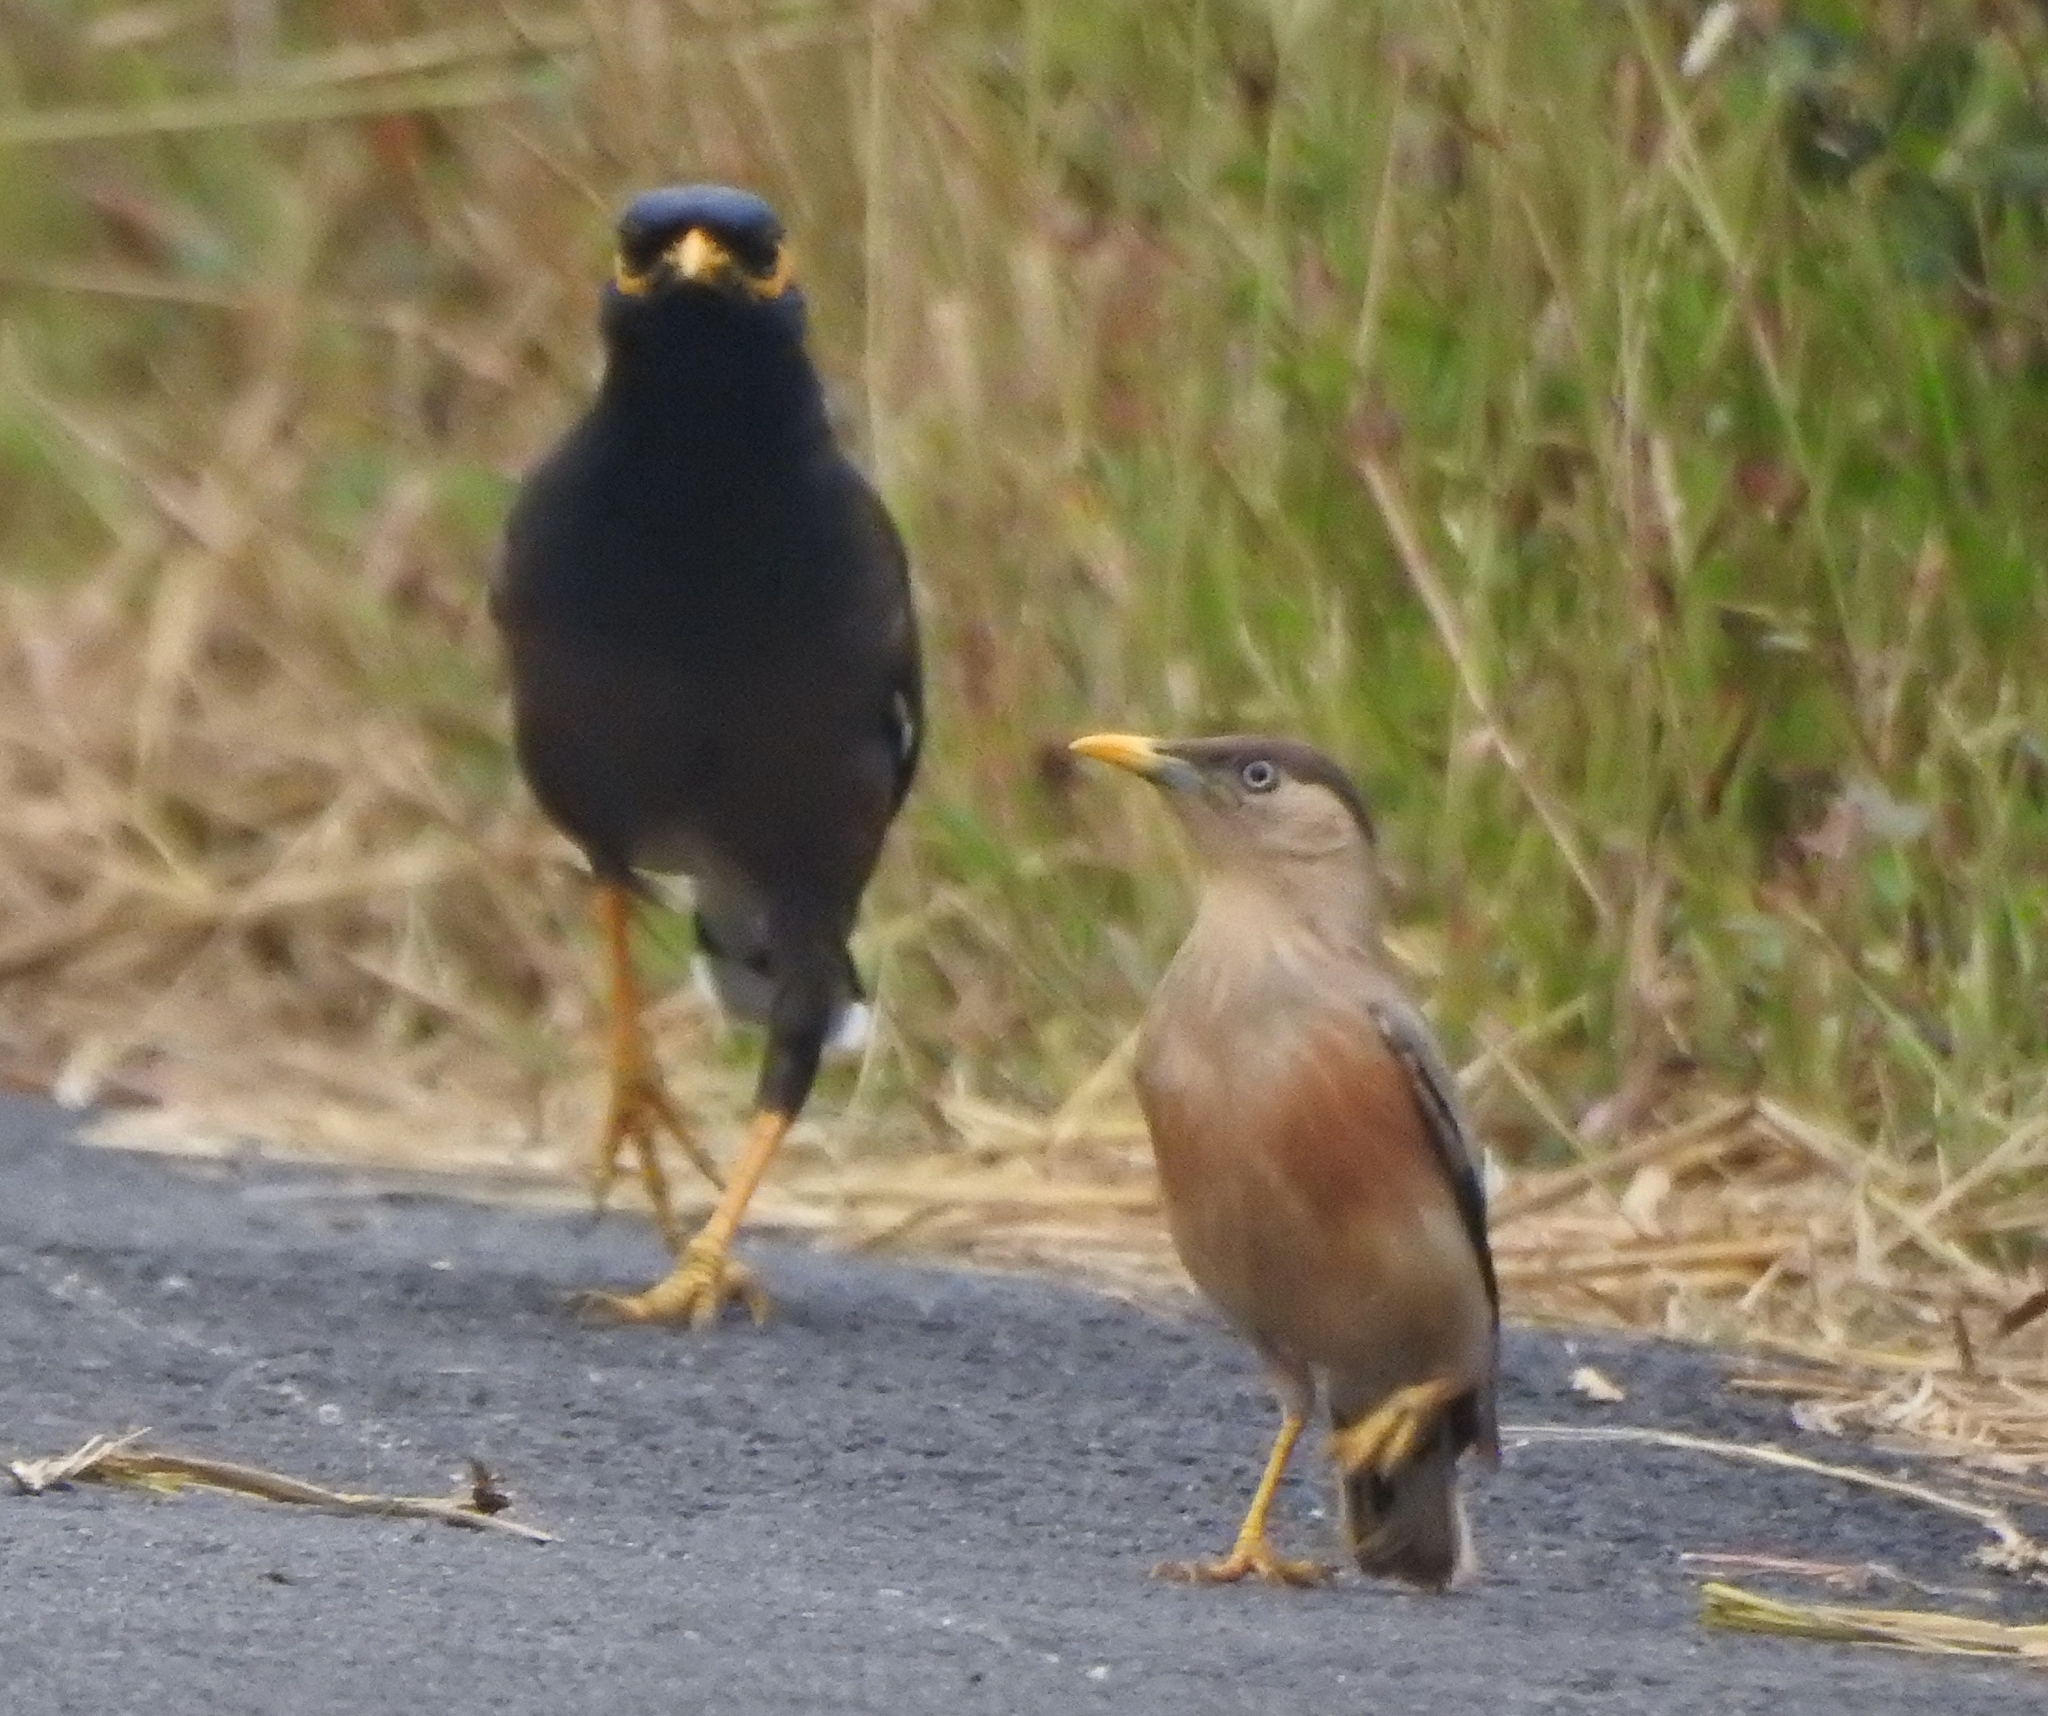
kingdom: Animalia
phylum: Chordata
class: Aves
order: Passeriformes
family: Sturnidae
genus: Acridotheres
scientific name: Acridotheres tristis
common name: Common myna
